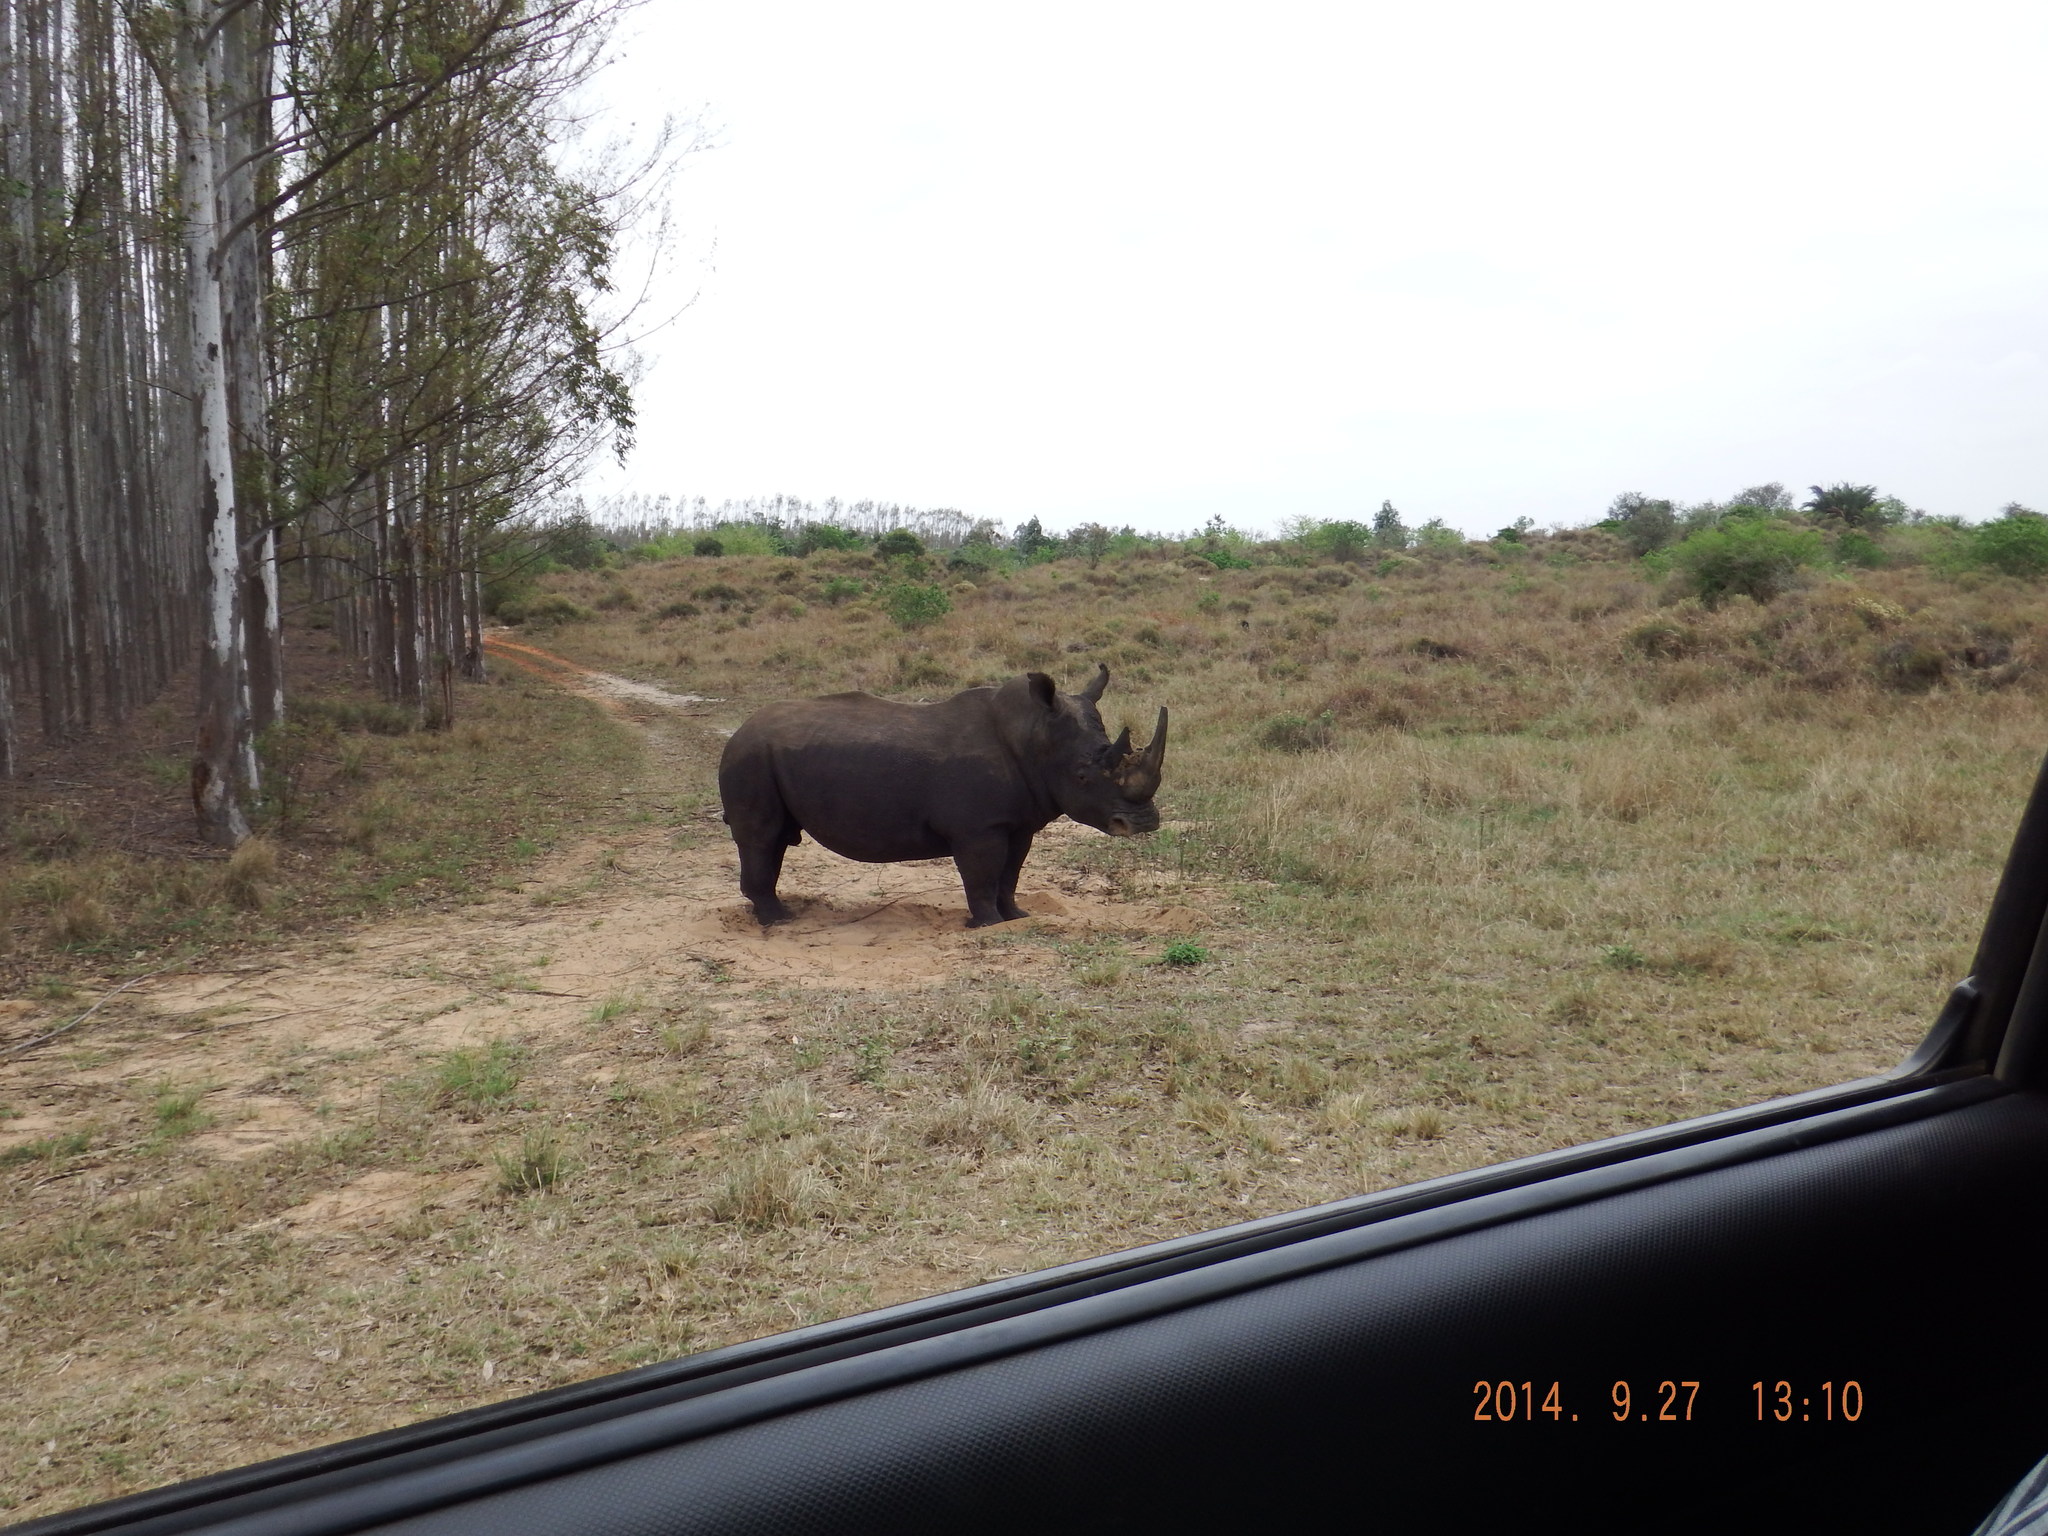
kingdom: Animalia
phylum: Chordata
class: Mammalia
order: Perissodactyla
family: Rhinocerotidae
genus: Ceratotherium
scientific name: Ceratotherium simum
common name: White rhinoceros
